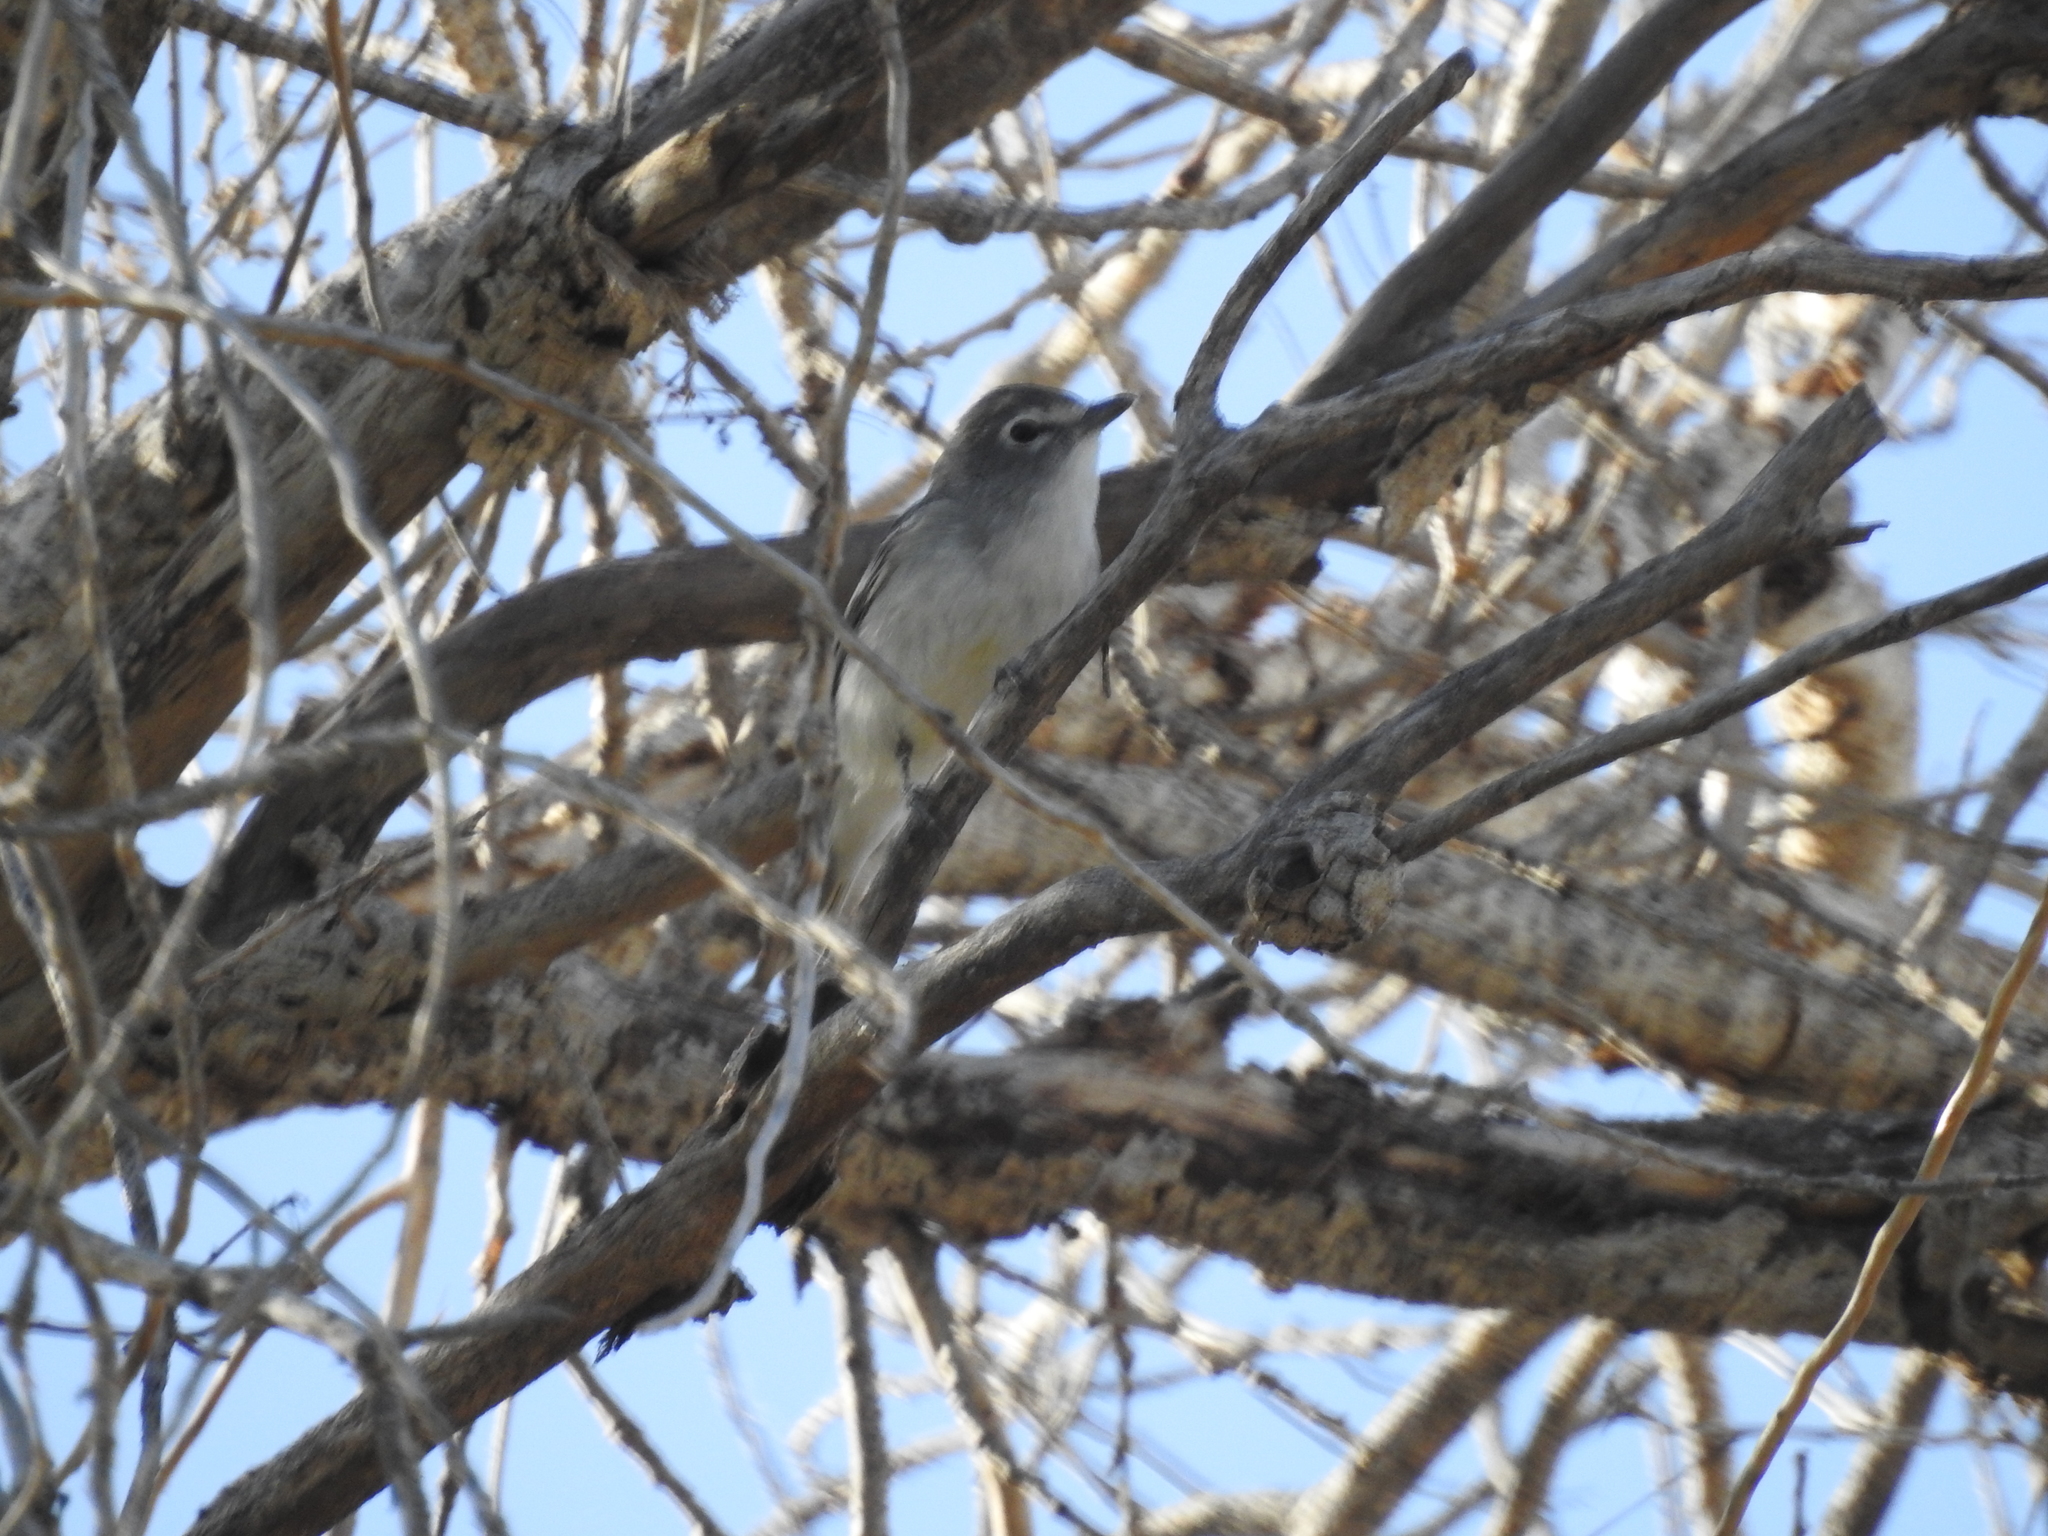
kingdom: Animalia
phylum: Chordata
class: Aves
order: Passeriformes
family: Vireonidae
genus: Vireo
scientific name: Vireo plumbeus
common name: Plumbeous vireo
